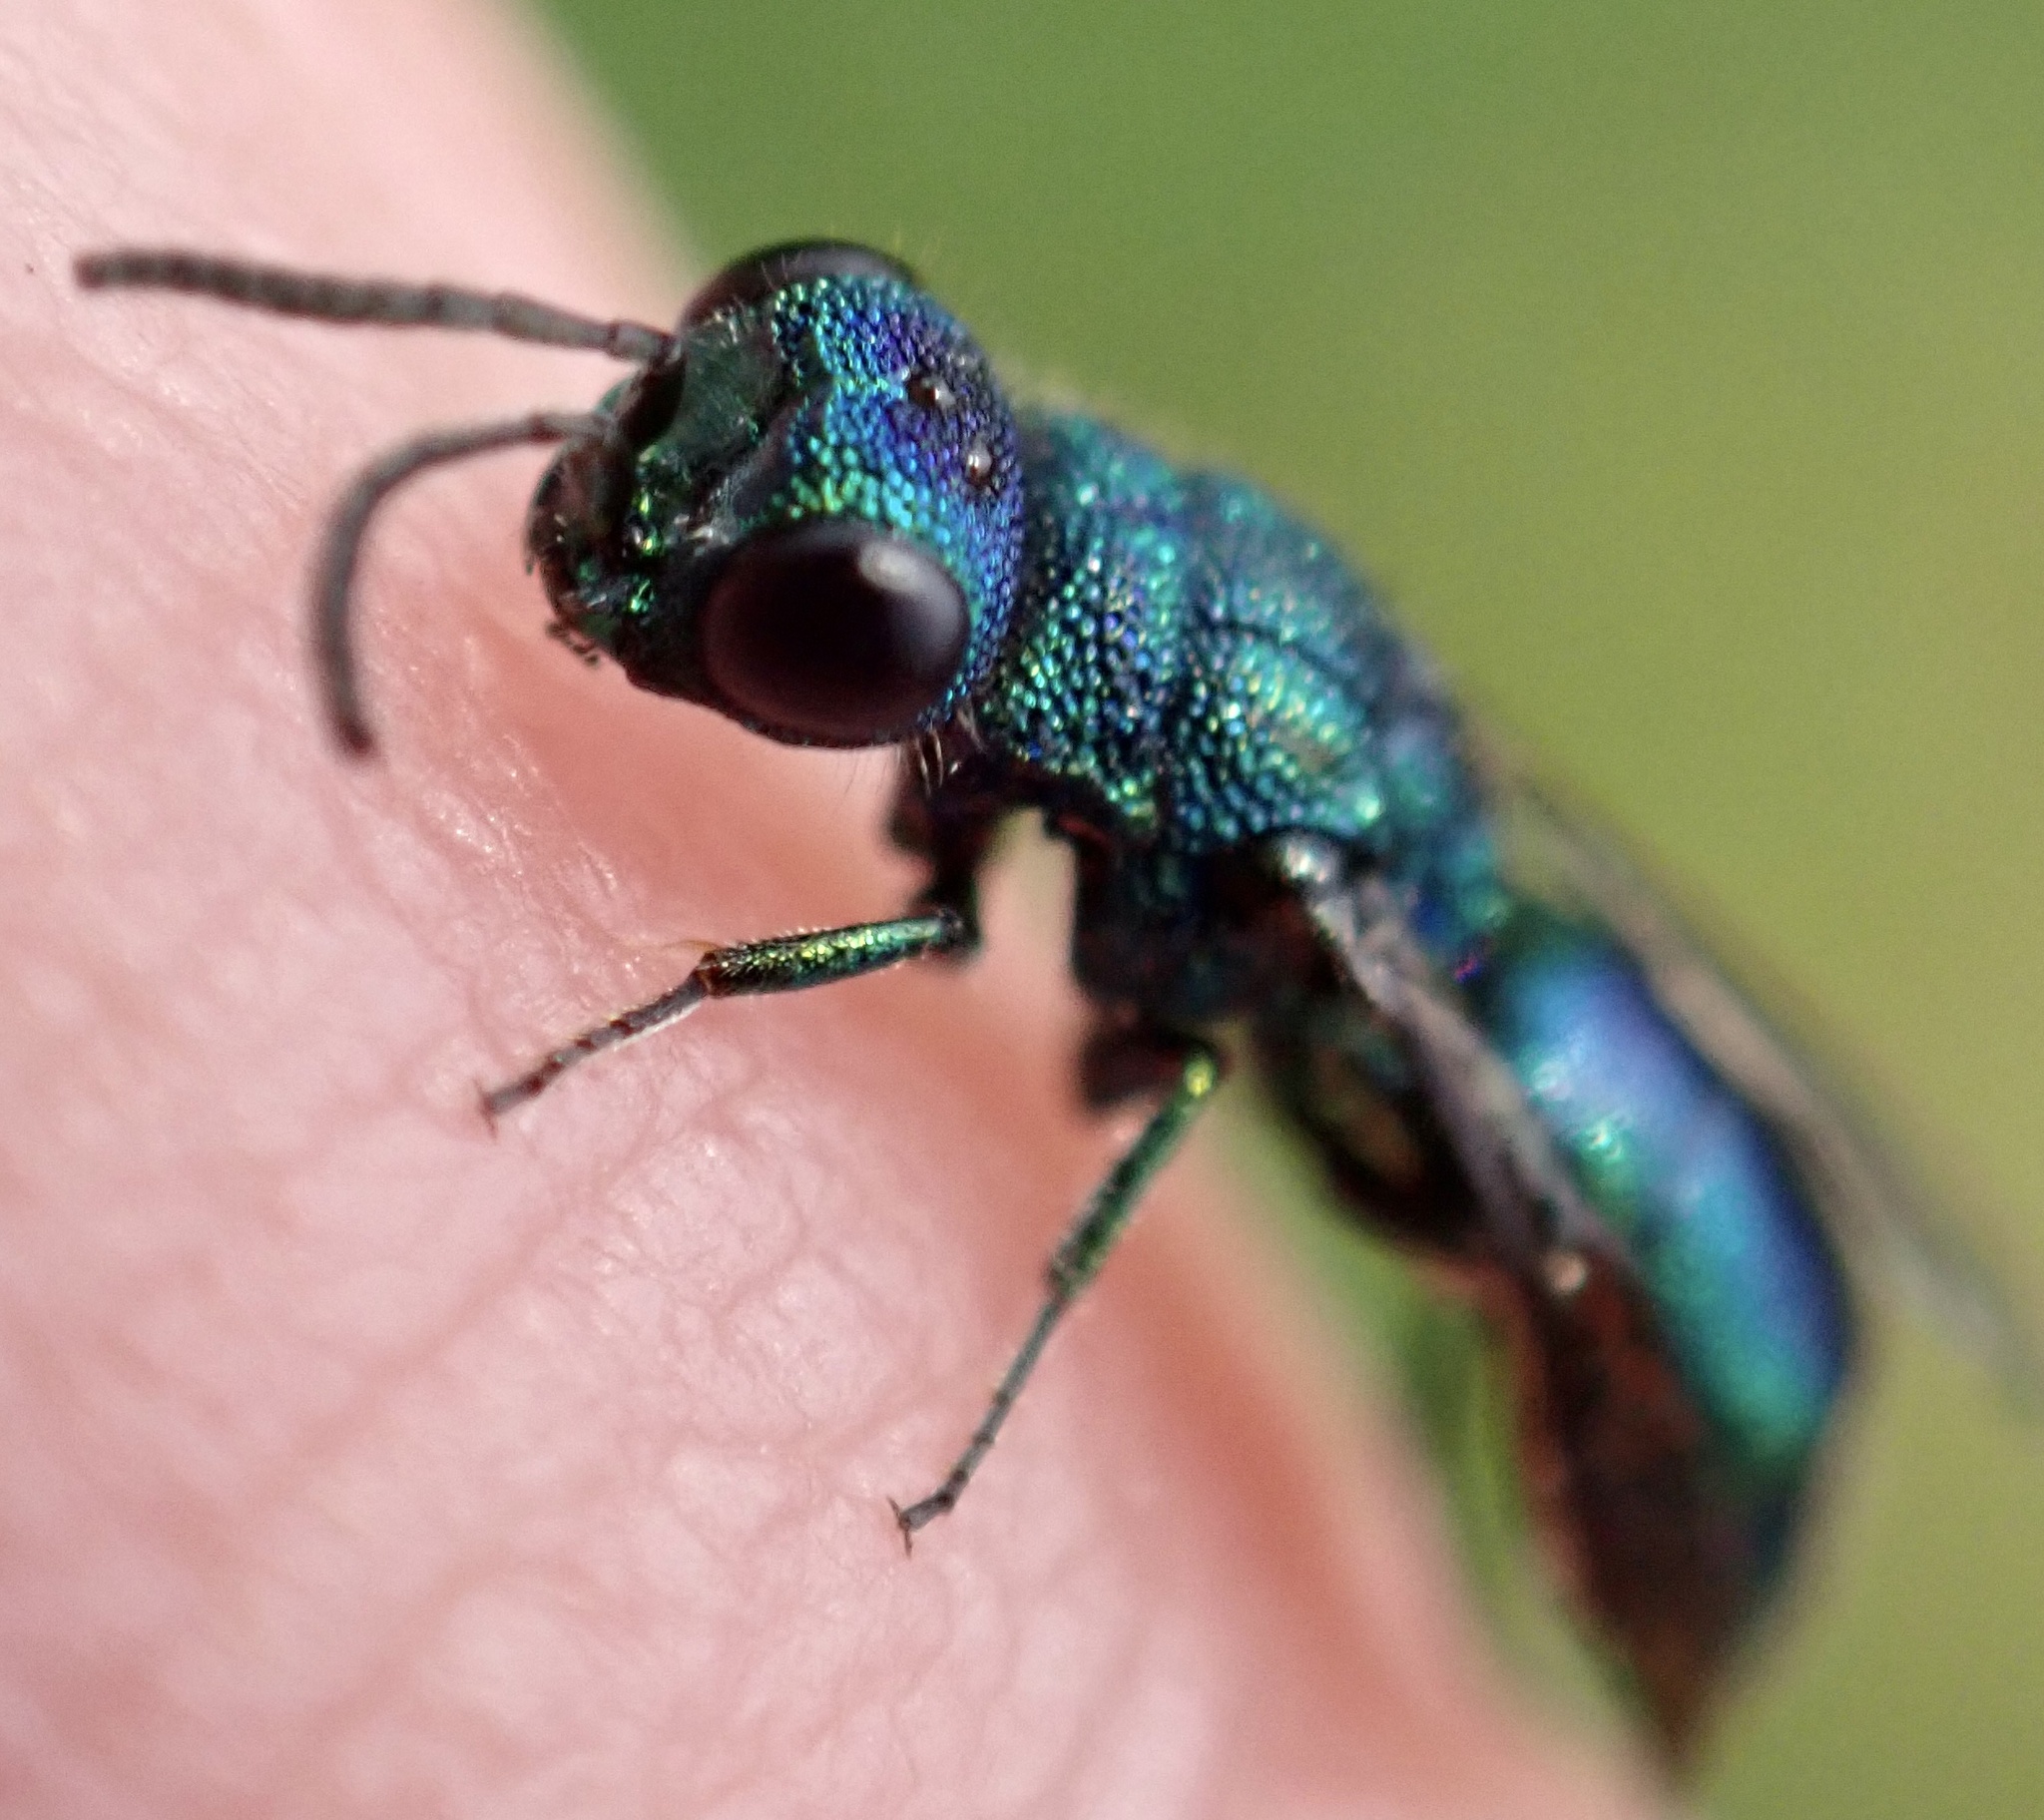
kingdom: Animalia
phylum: Arthropoda
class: Insecta
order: Hymenoptera
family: Pompilidae
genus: Pepsis
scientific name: Pepsis cyanea
